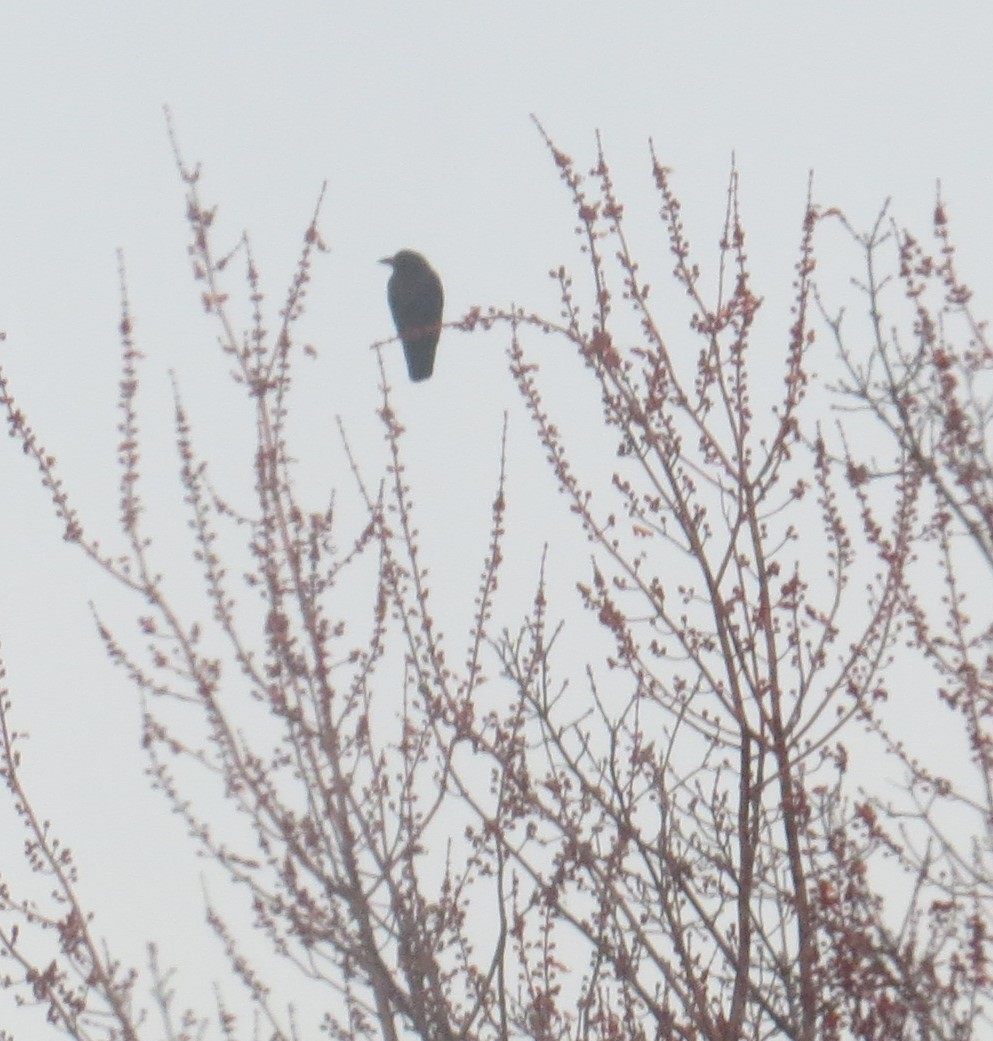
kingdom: Animalia
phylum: Chordata
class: Aves
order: Passeriformes
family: Corvidae
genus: Corvus
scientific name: Corvus brachyrhynchos
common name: American crow
